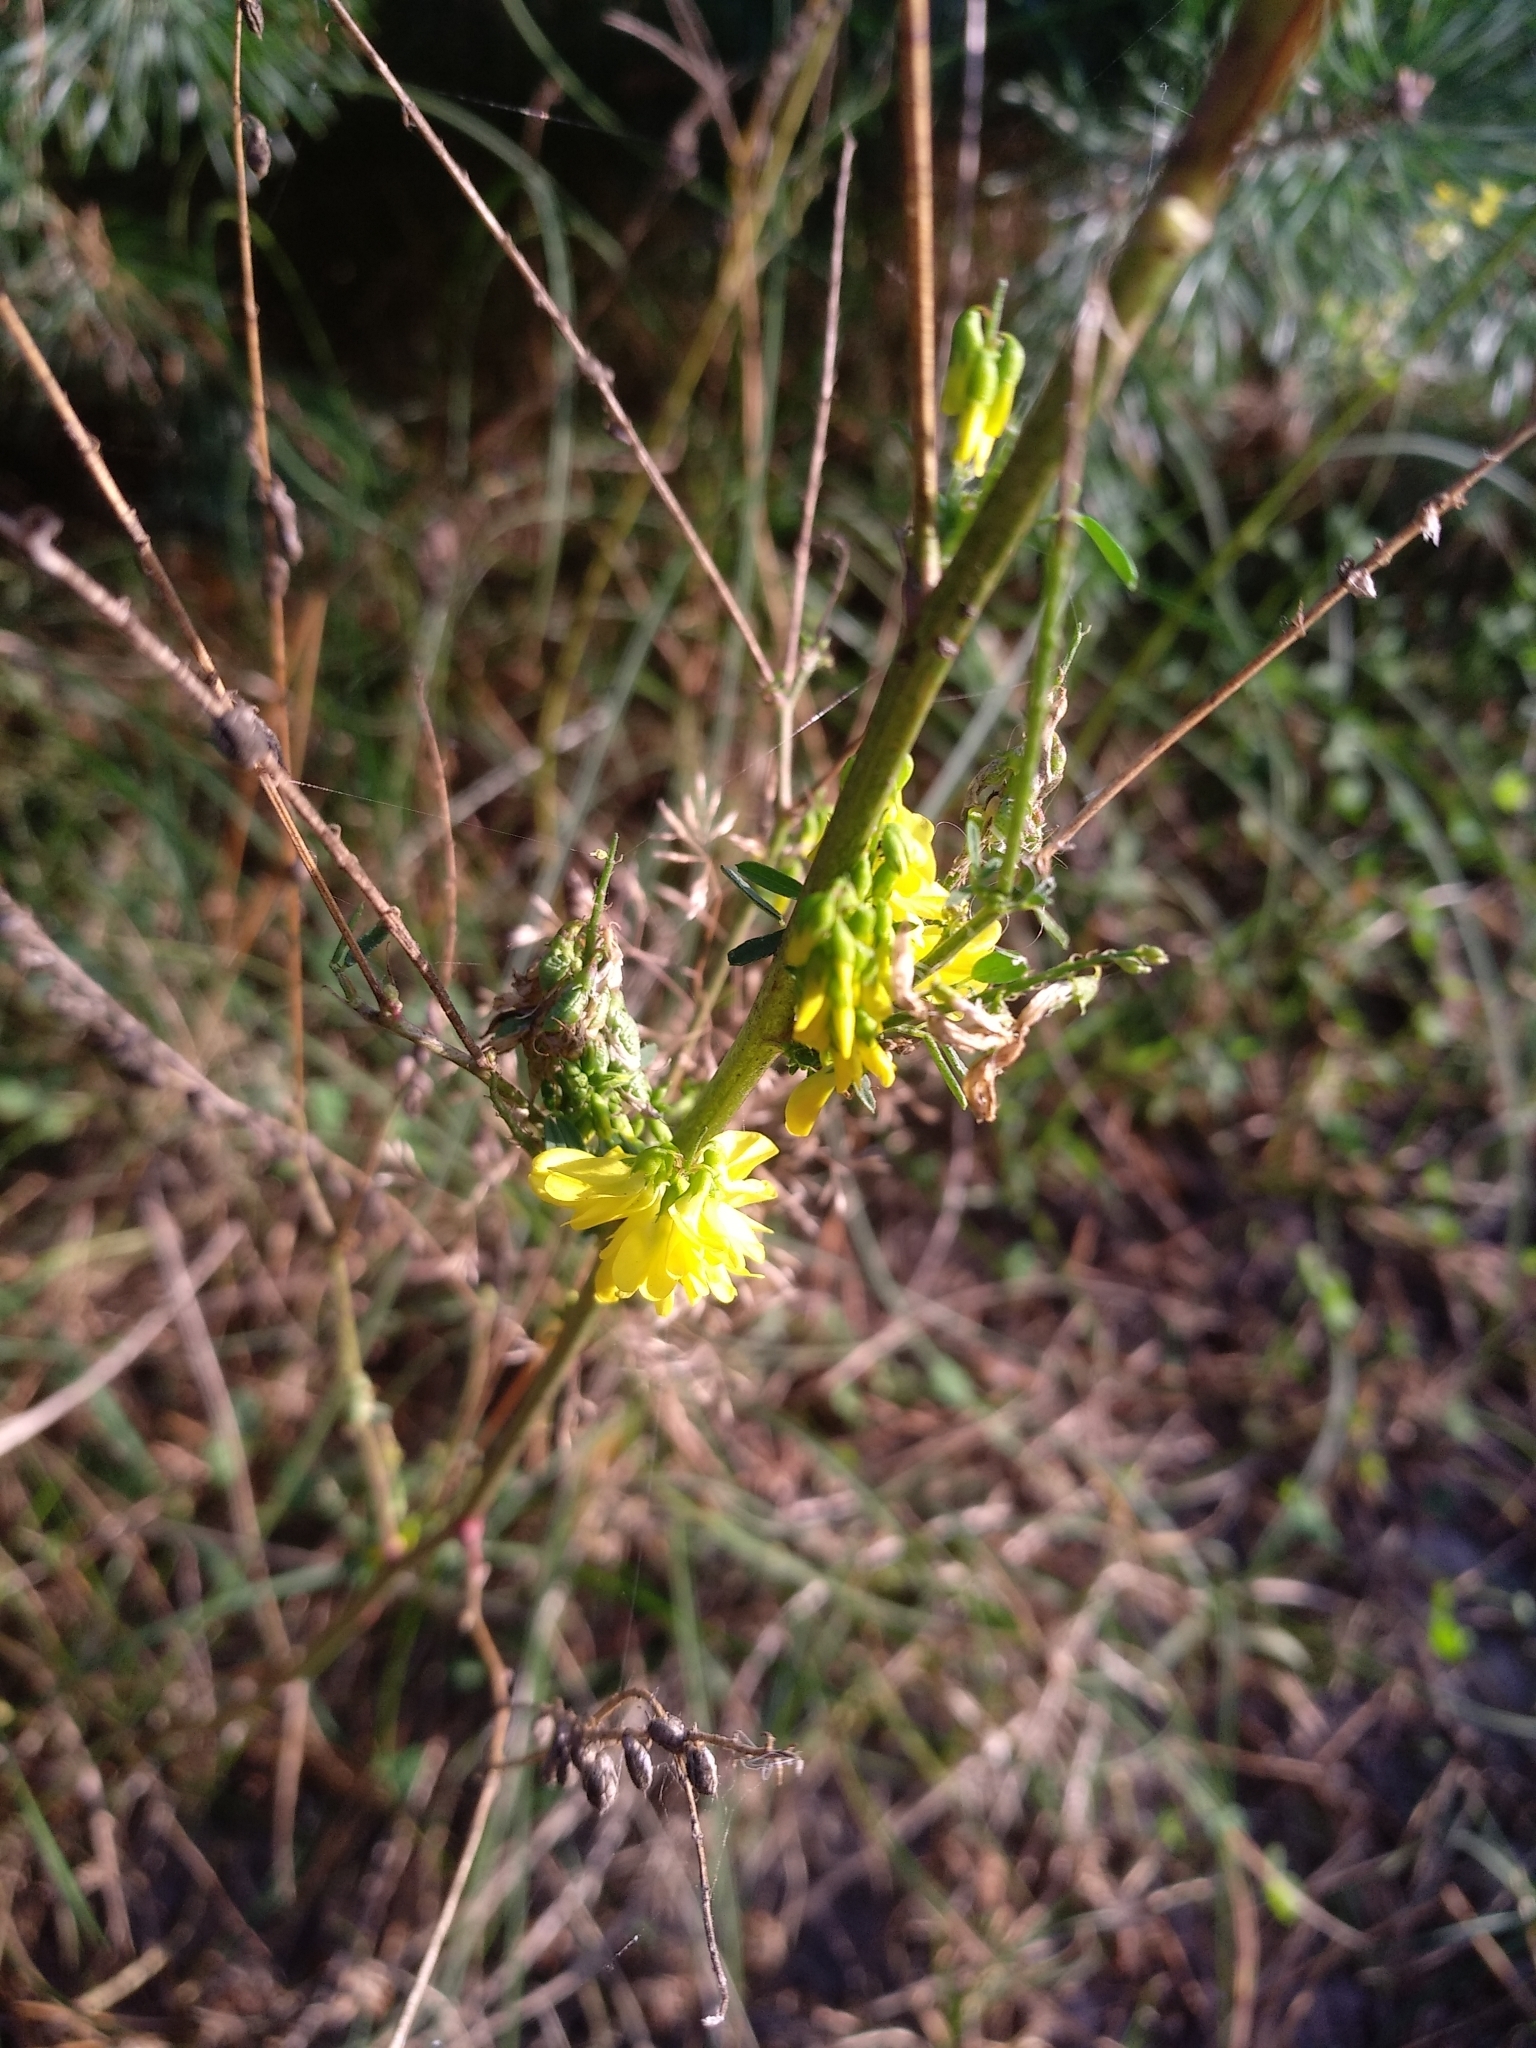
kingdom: Plantae
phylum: Tracheophyta
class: Magnoliopsida
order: Fabales
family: Fabaceae
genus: Melilotus
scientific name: Melilotus officinalis
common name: Sweetclover
